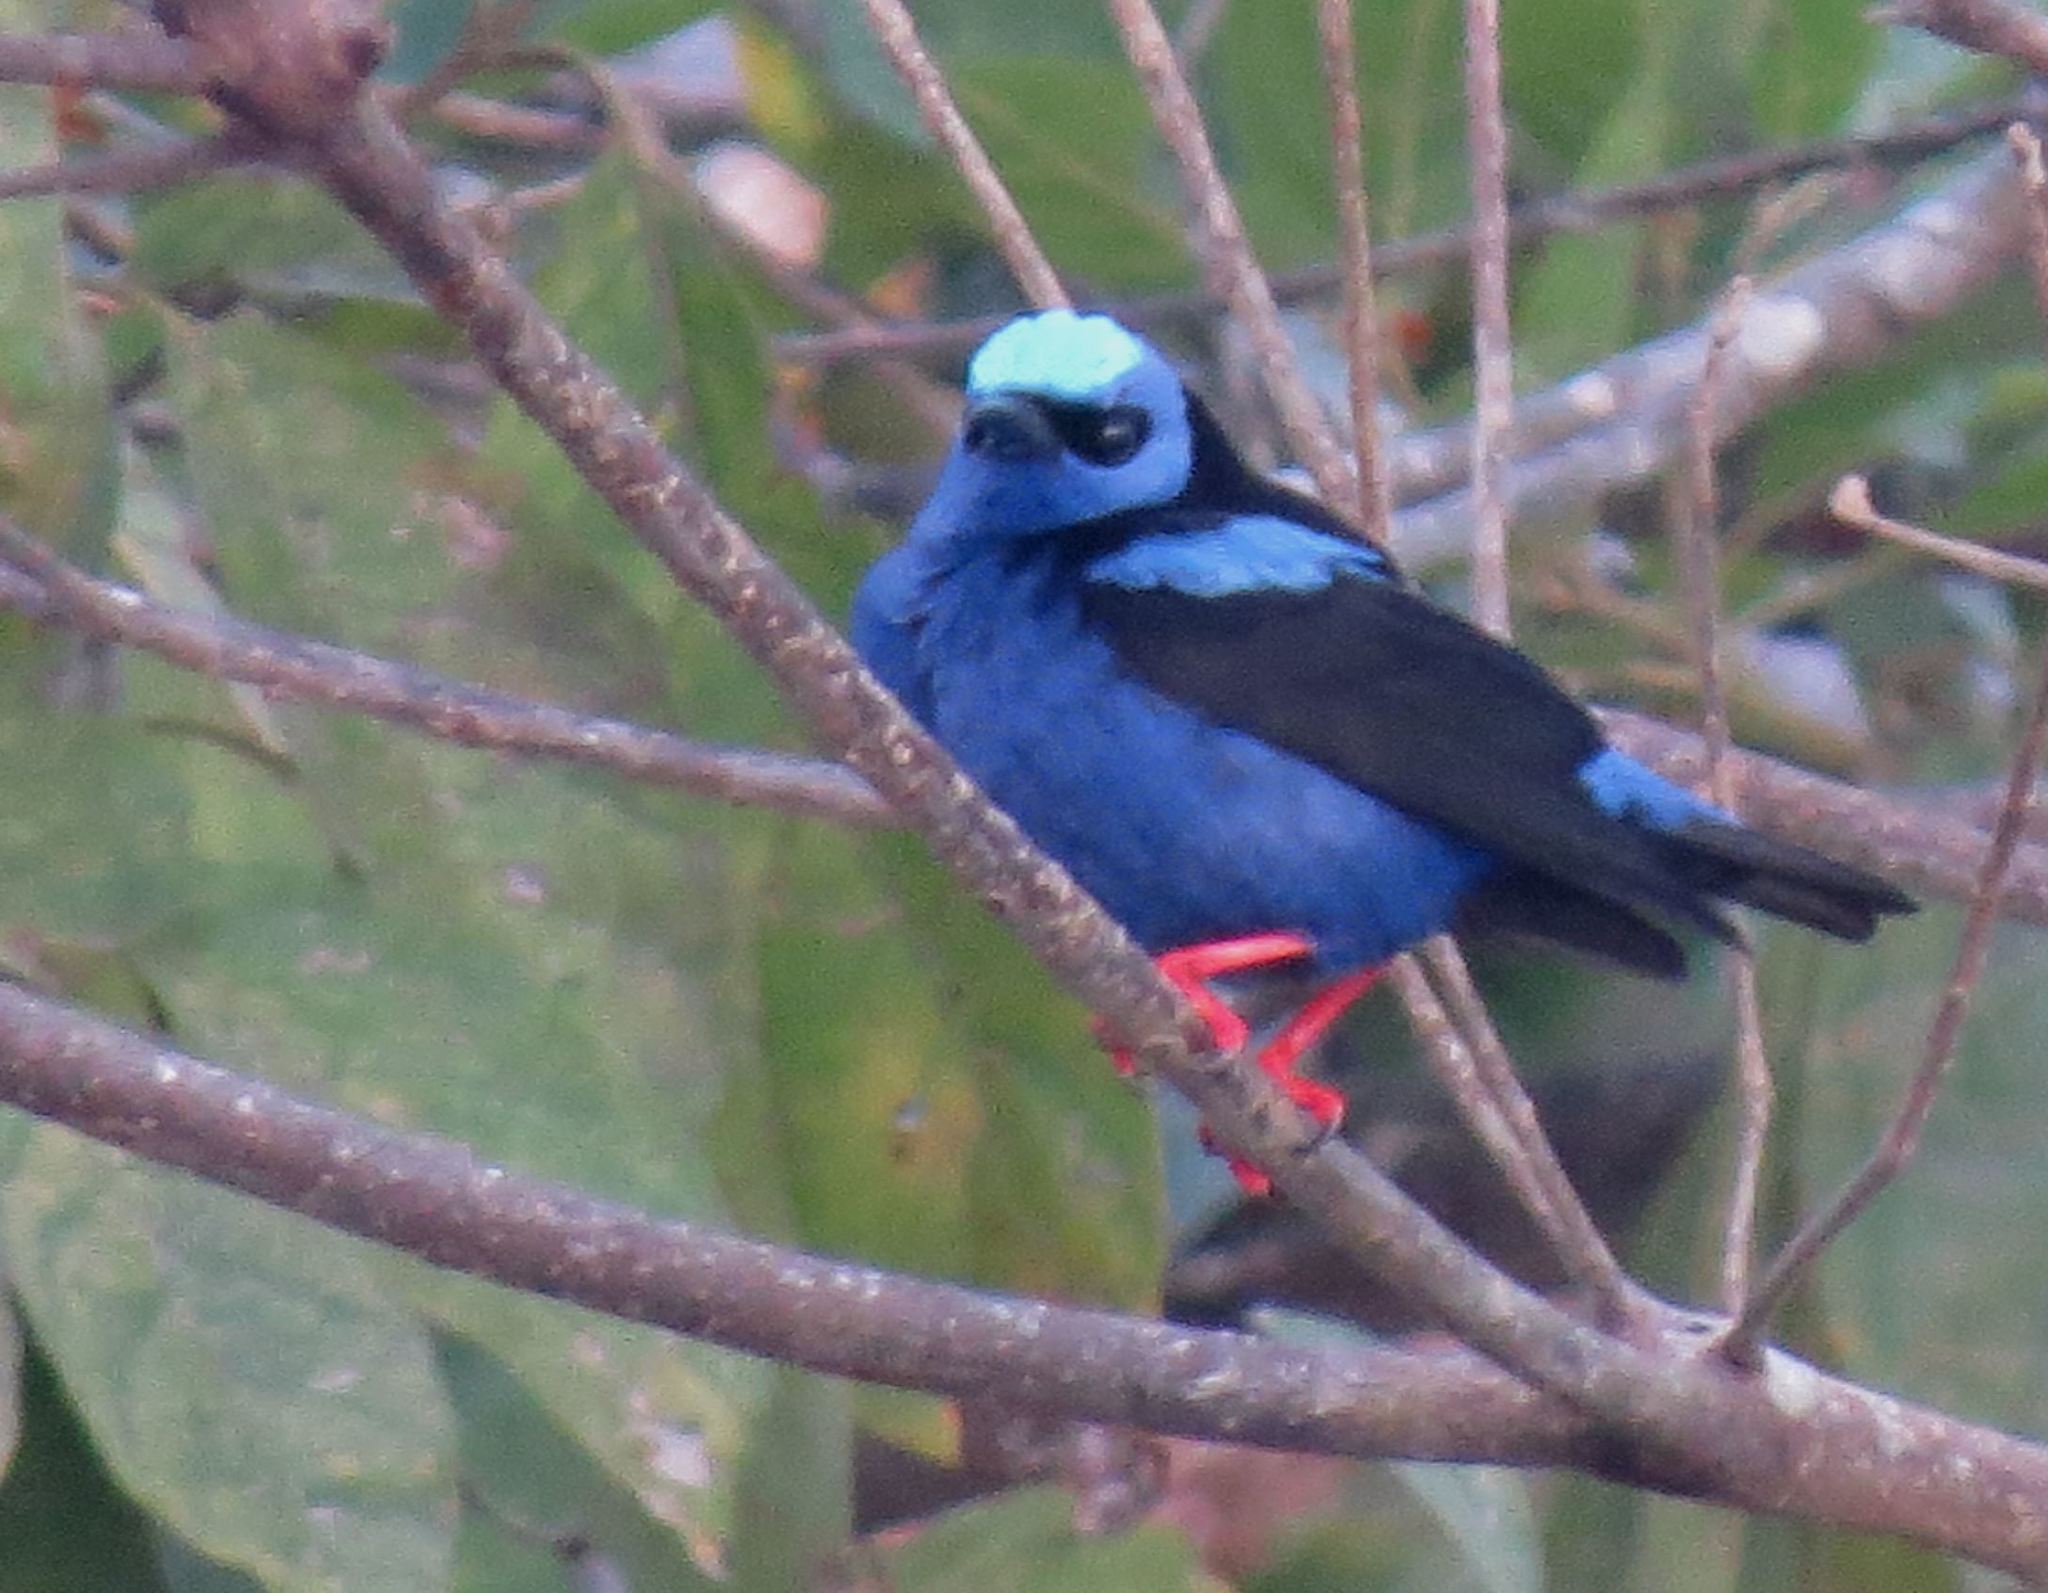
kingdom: Animalia
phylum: Chordata
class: Aves
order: Passeriformes
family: Thraupidae
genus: Cyanerpes
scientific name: Cyanerpes cyaneus
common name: Red-legged honeycreeper
